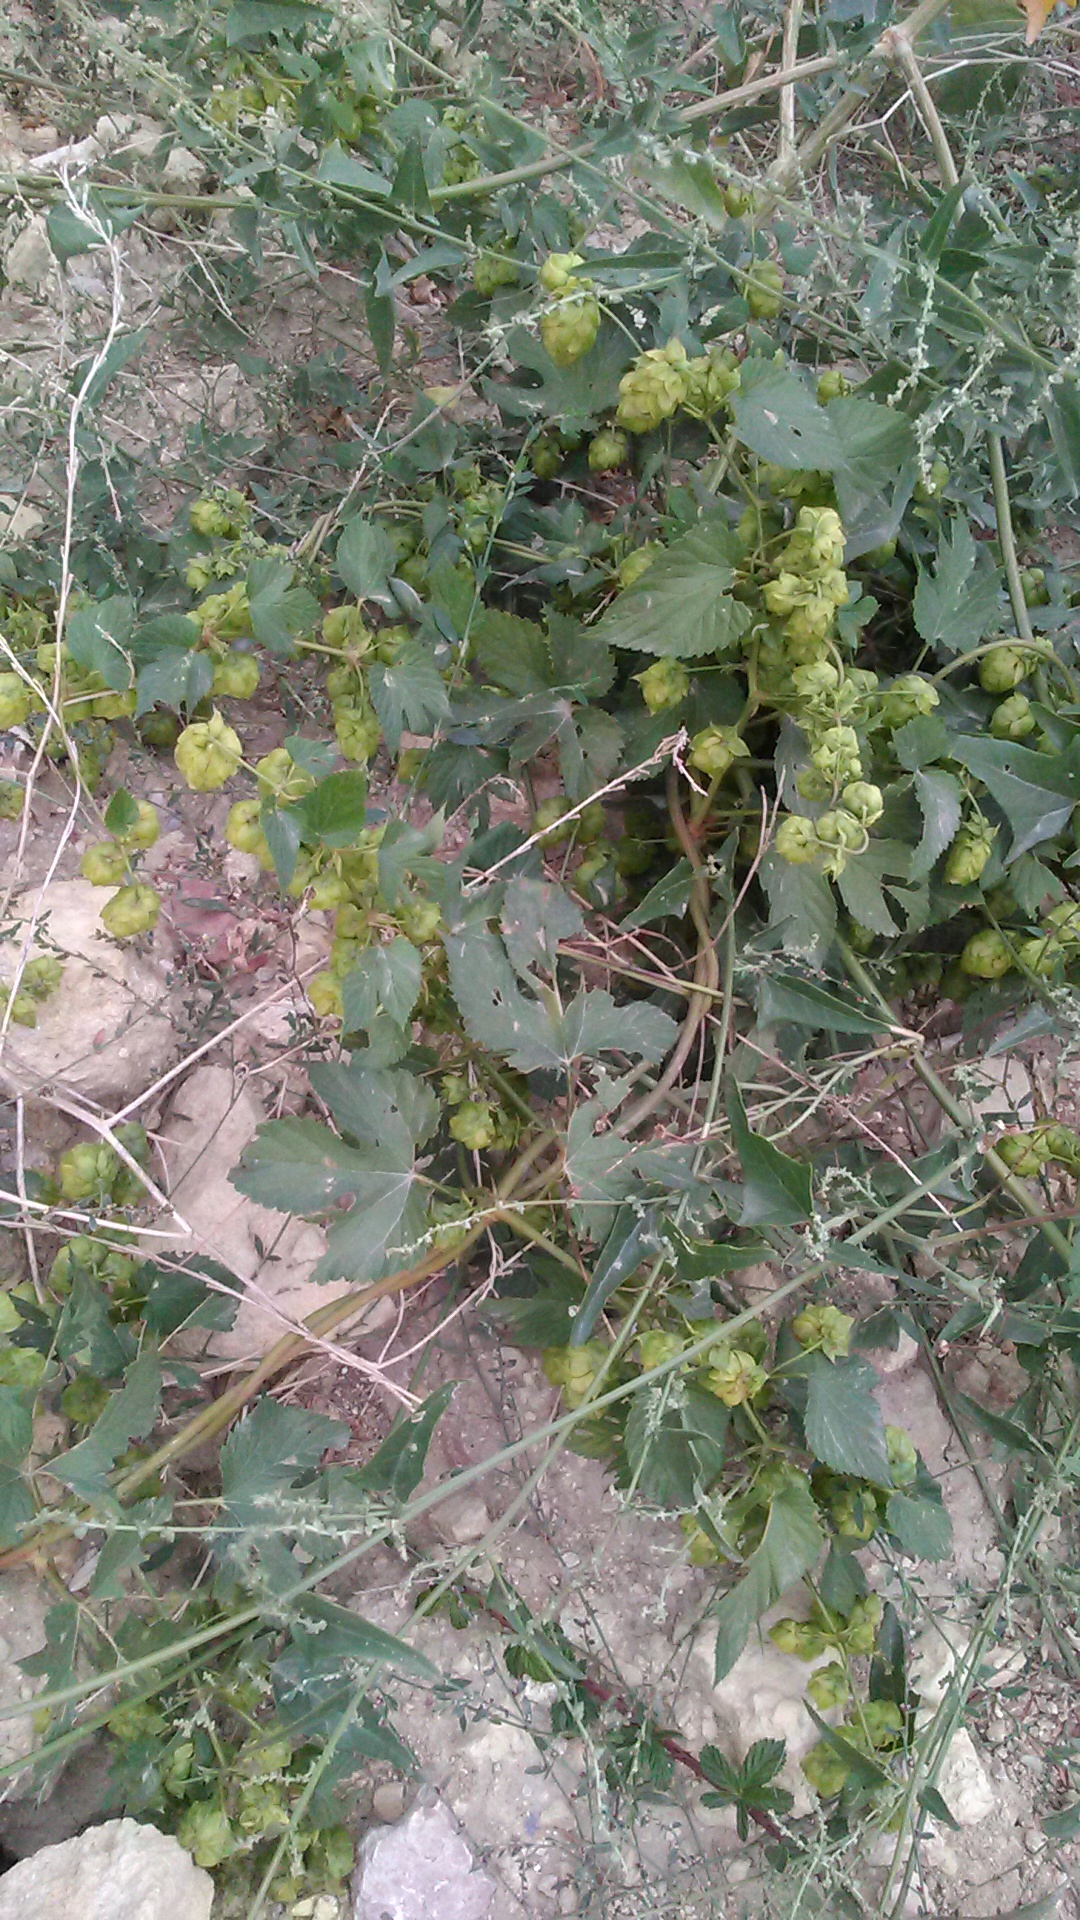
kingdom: Plantae
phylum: Tracheophyta
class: Magnoliopsida
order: Rosales
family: Cannabaceae
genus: Humulus
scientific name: Humulus lupulus
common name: Hop
